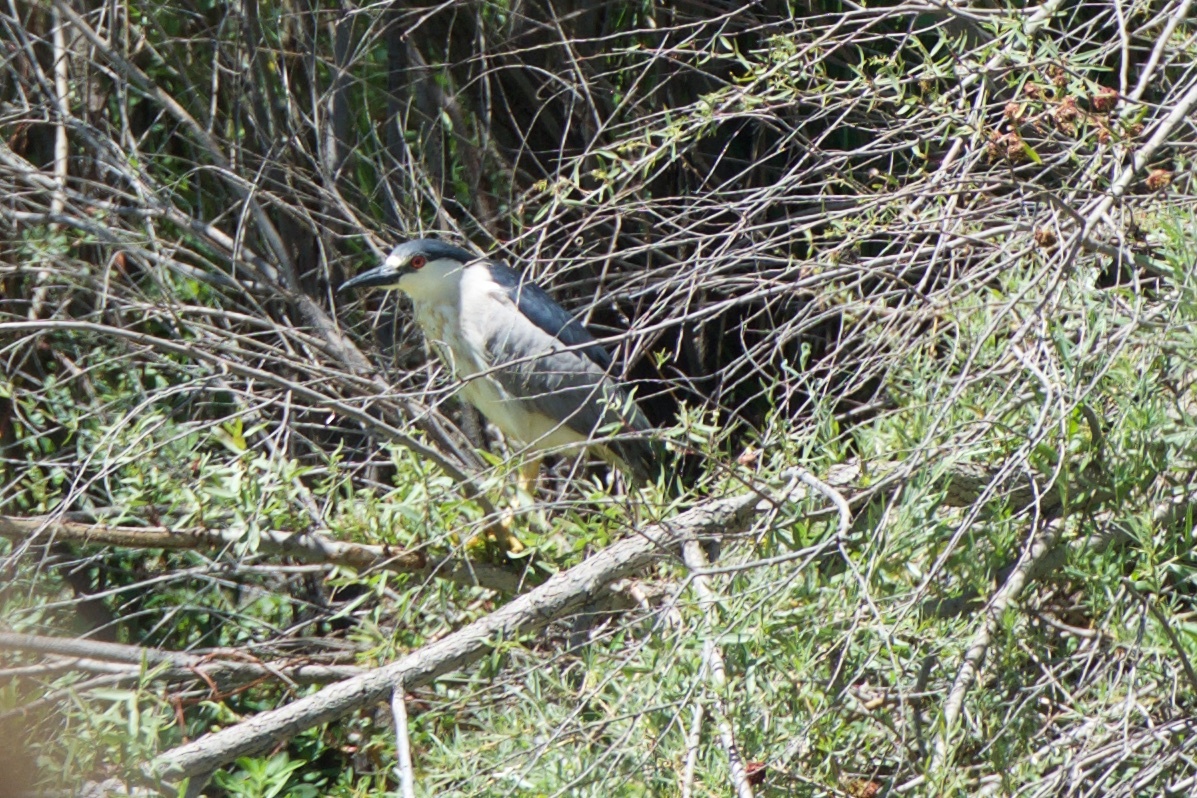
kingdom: Animalia
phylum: Chordata
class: Aves
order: Pelecaniformes
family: Ardeidae
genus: Nycticorax
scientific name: Nycticorax nycticorax
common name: Black-crowned night heron
